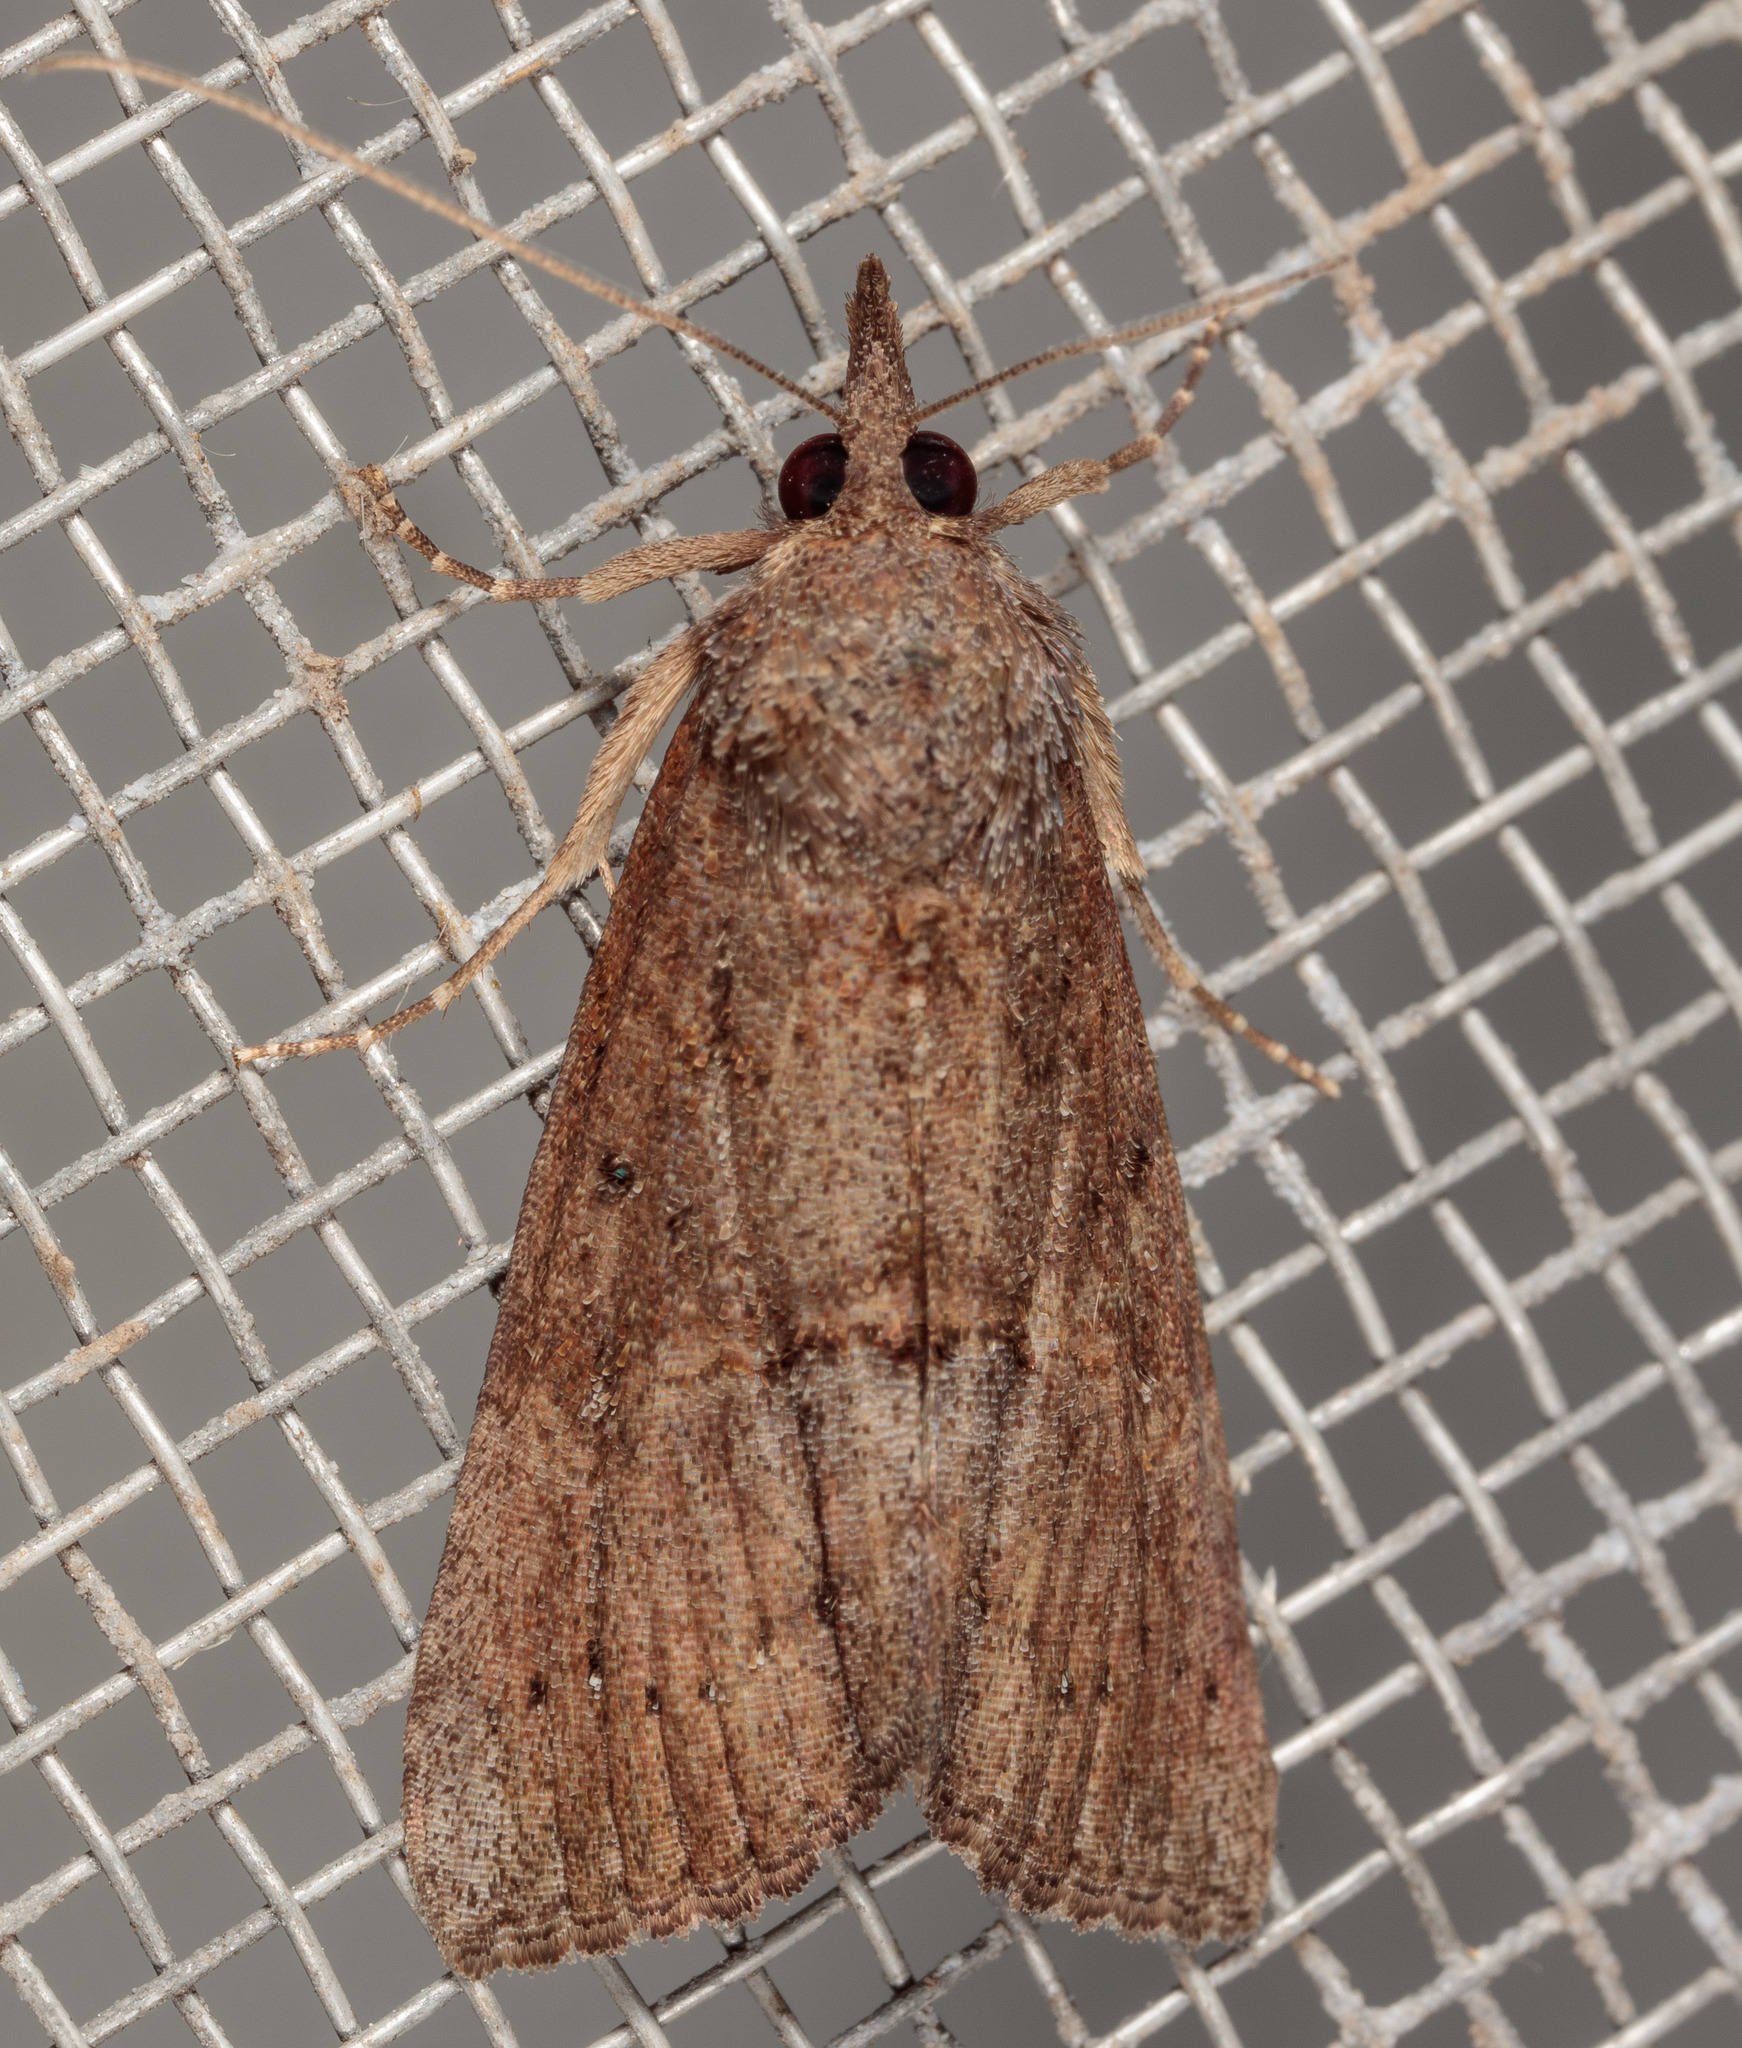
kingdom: Animalia
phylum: Arthropoda
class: Insecta
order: Lepidoptera
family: Erebidae
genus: Hypena
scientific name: Hypena scabra
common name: Green cloverworm
